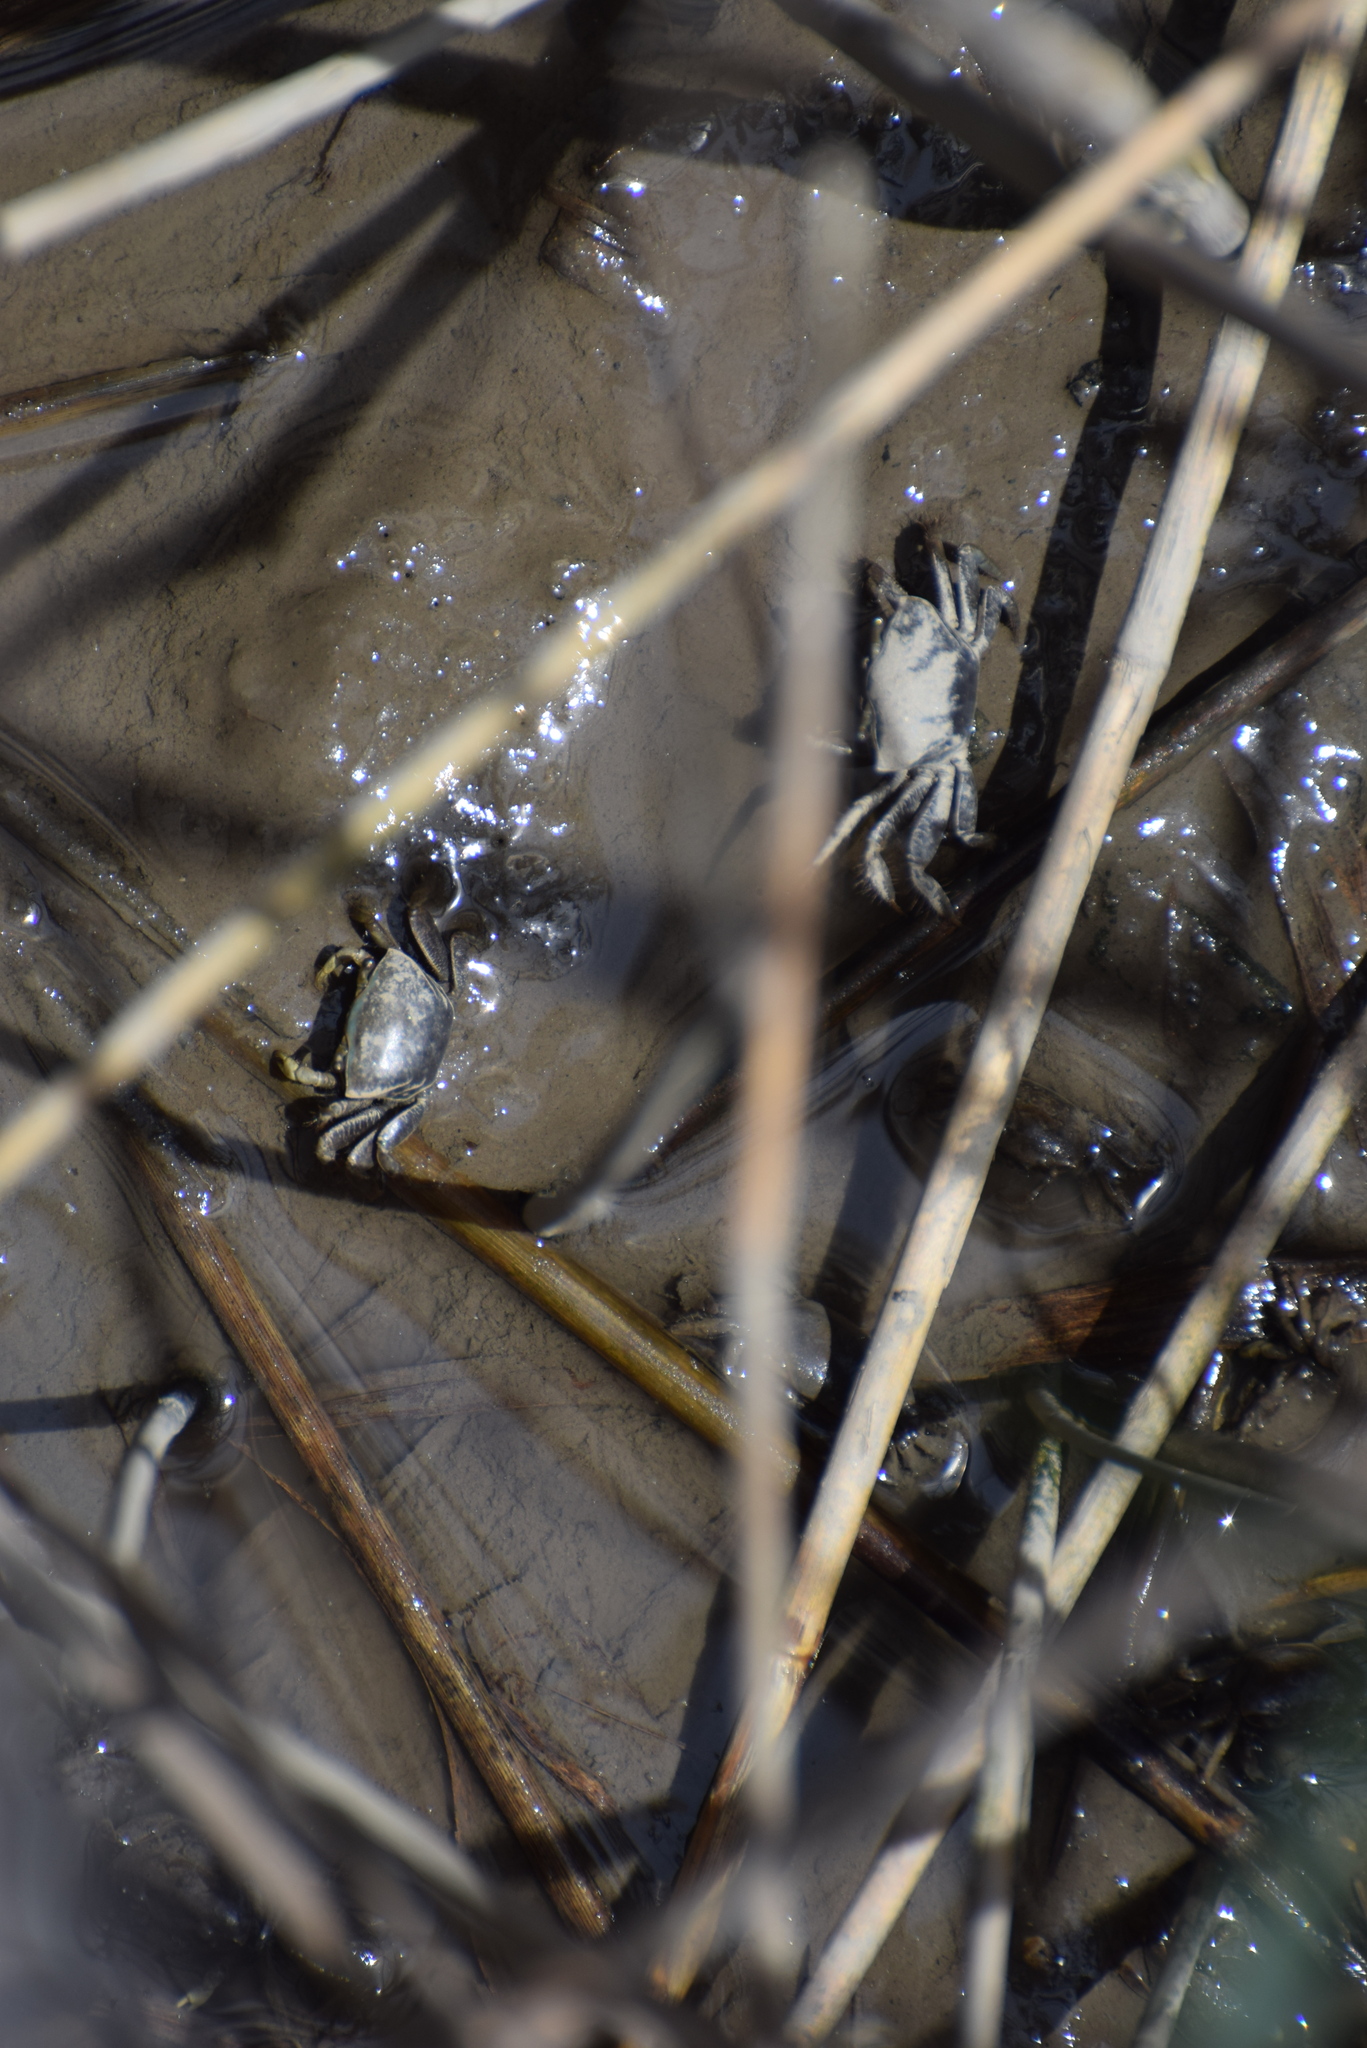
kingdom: Animalia
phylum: Arthropoda
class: Malacostraca
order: Decapoda
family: Ocypodidae
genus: Minuca
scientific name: Minuca pugnax
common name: Mud fiddler crab
